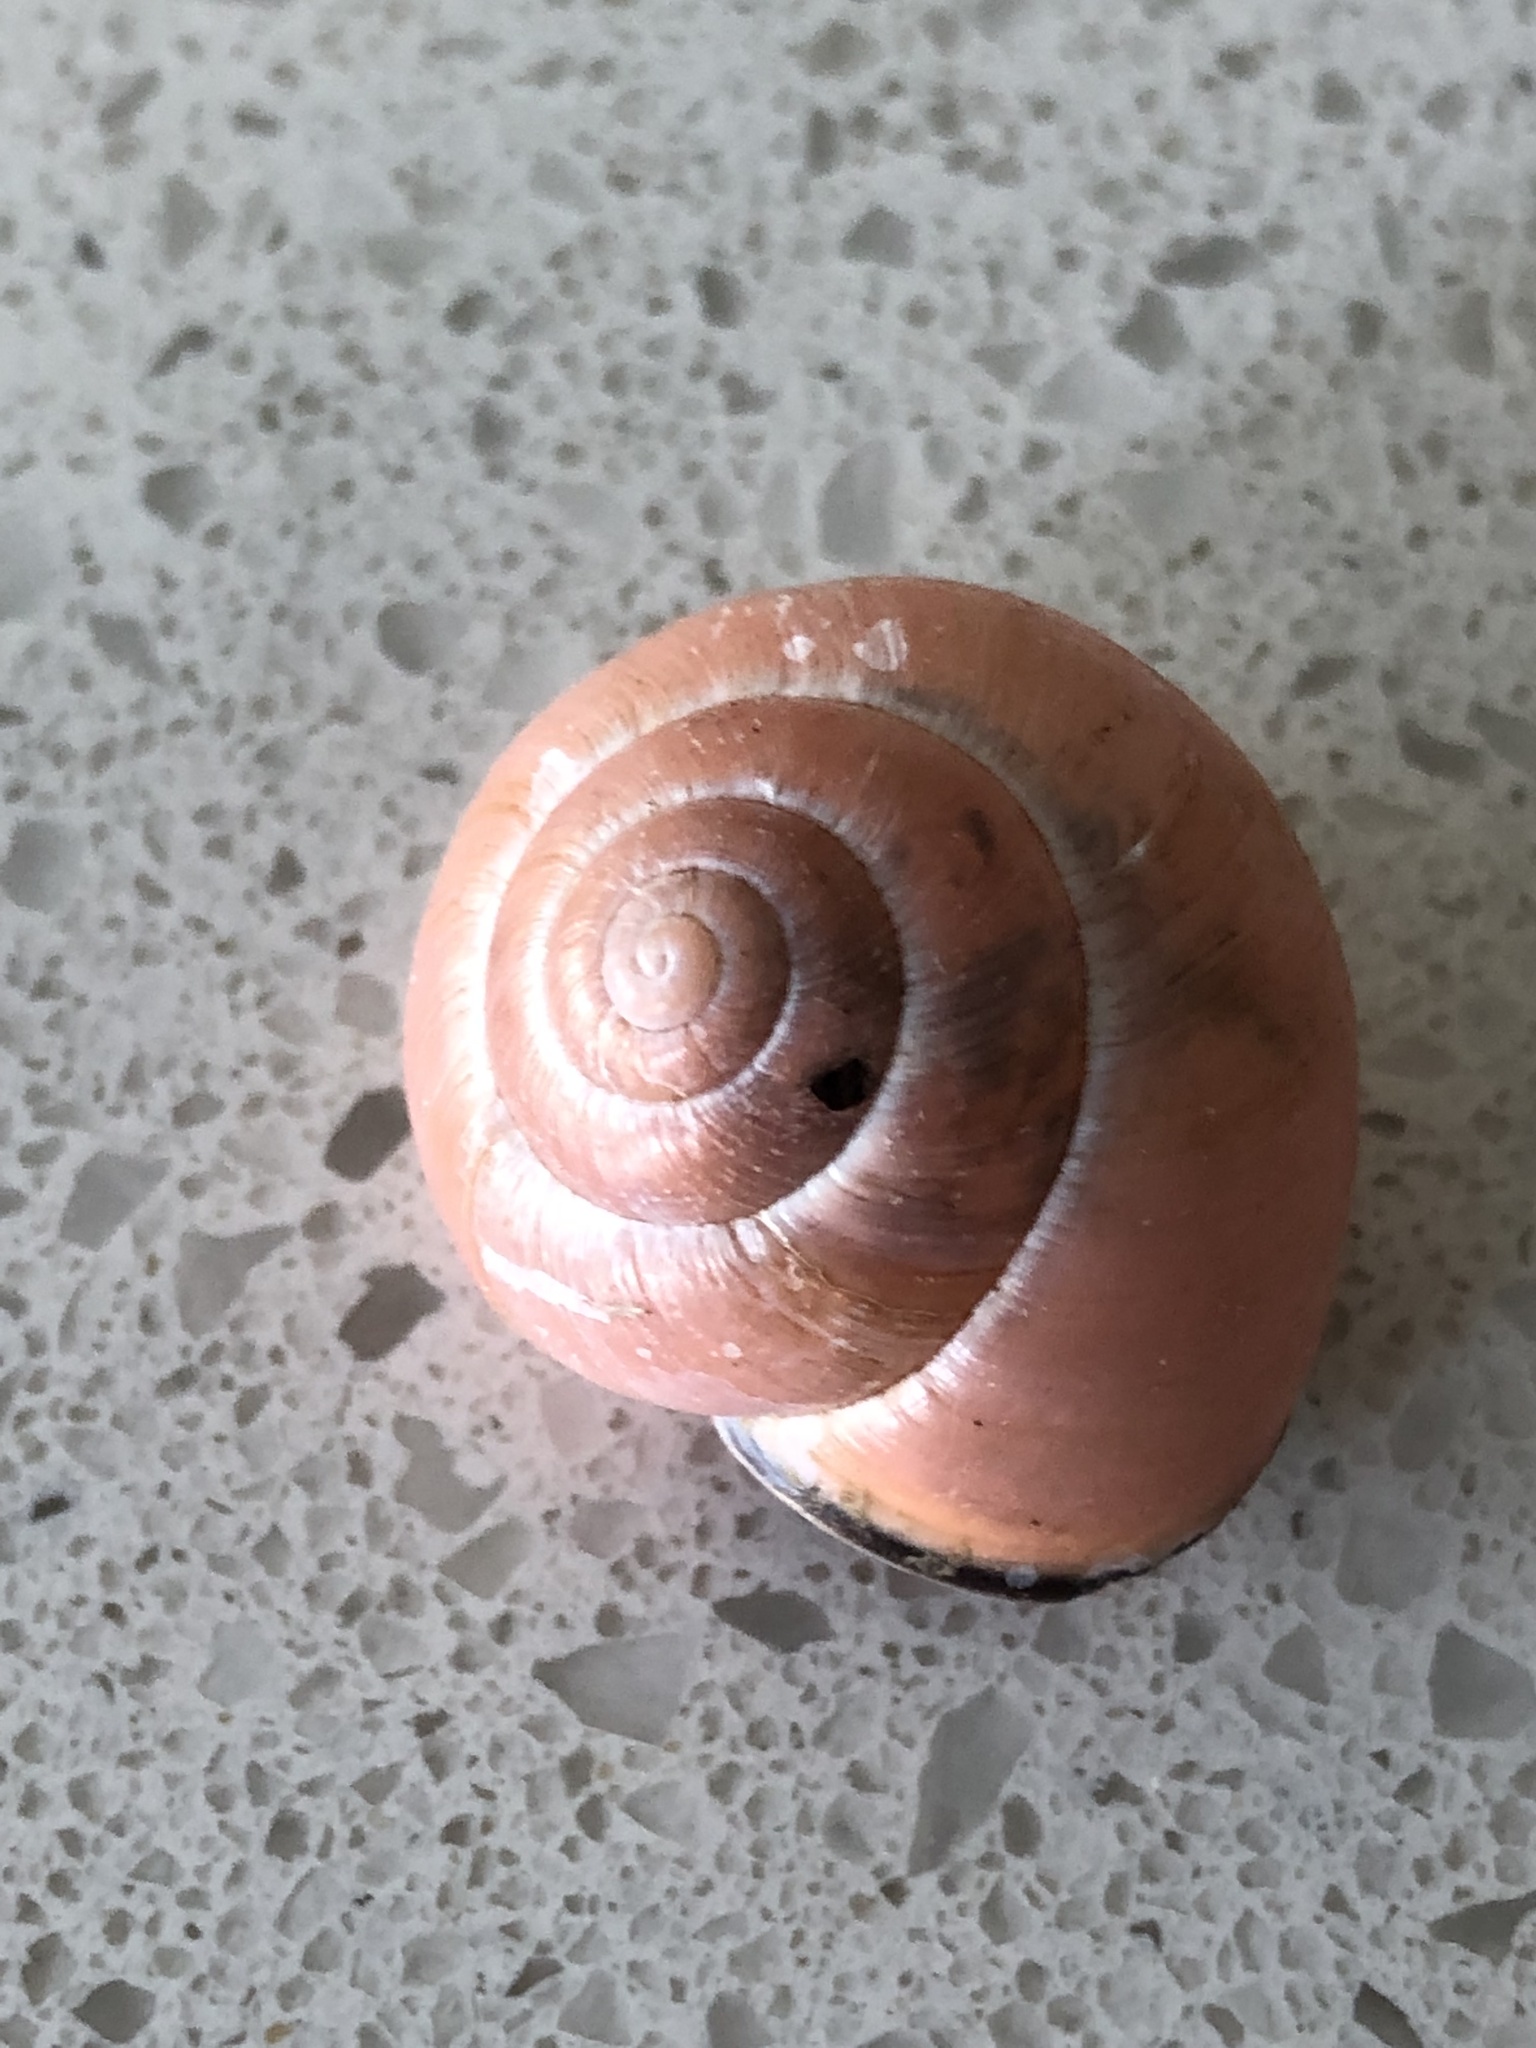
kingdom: Animalia
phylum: Mollusca
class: Gastropoda
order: Stylommatophora
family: Helicidae
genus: Cepaea
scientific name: Cepaea nemoralis
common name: Grovesnail
